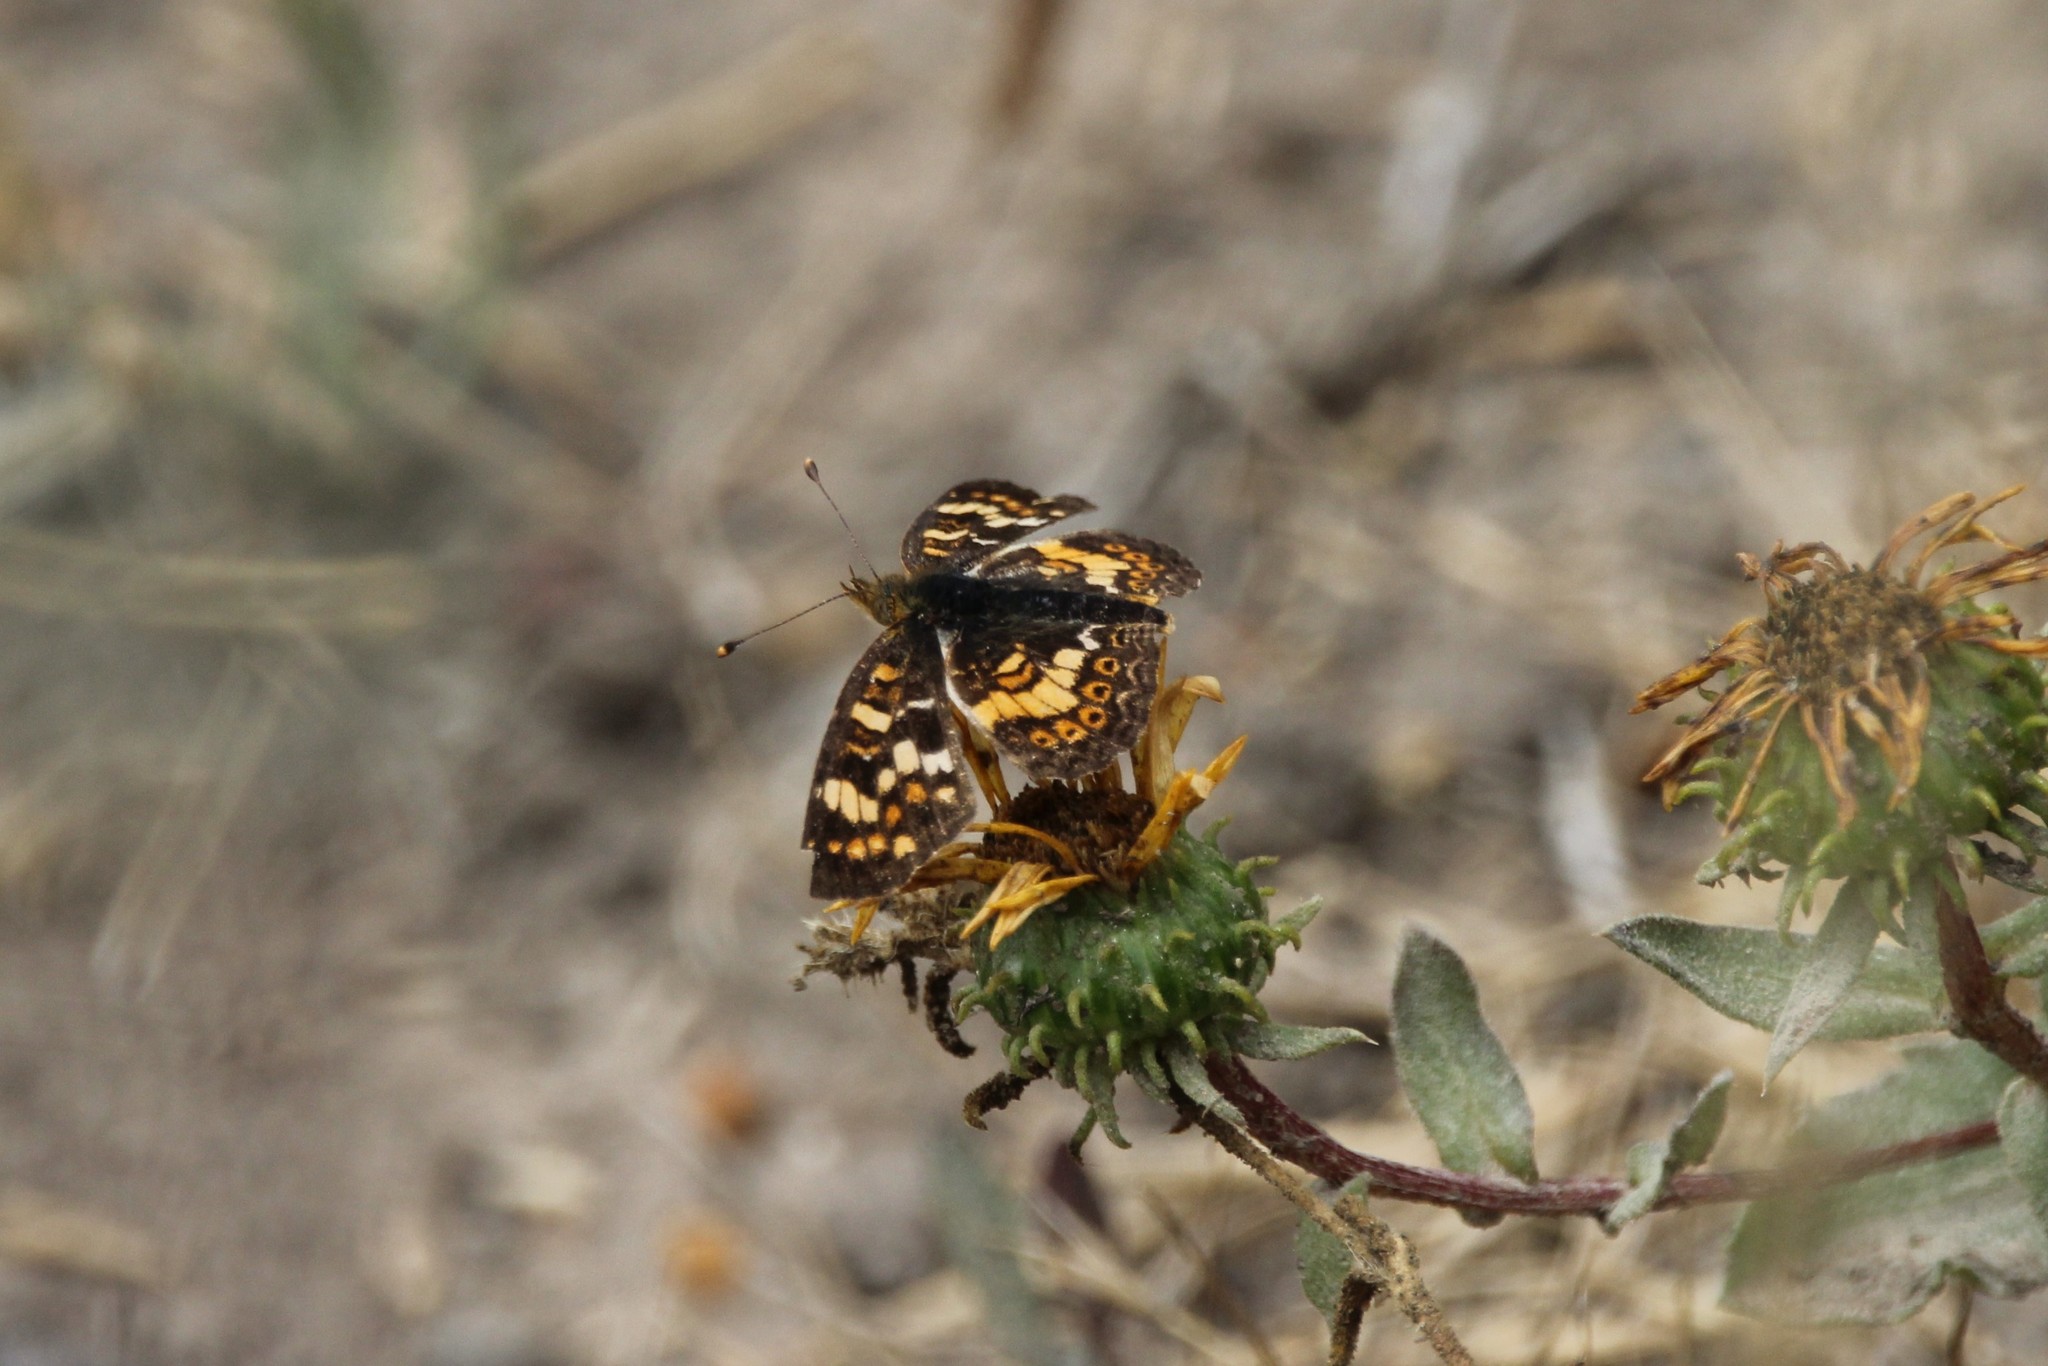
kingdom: Animalia
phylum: Arthropoda
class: Insecta
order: Lepidoptera
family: Nymphalidae
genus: Phyciodes
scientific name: Phyciodes tharos
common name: Pearl crescent
